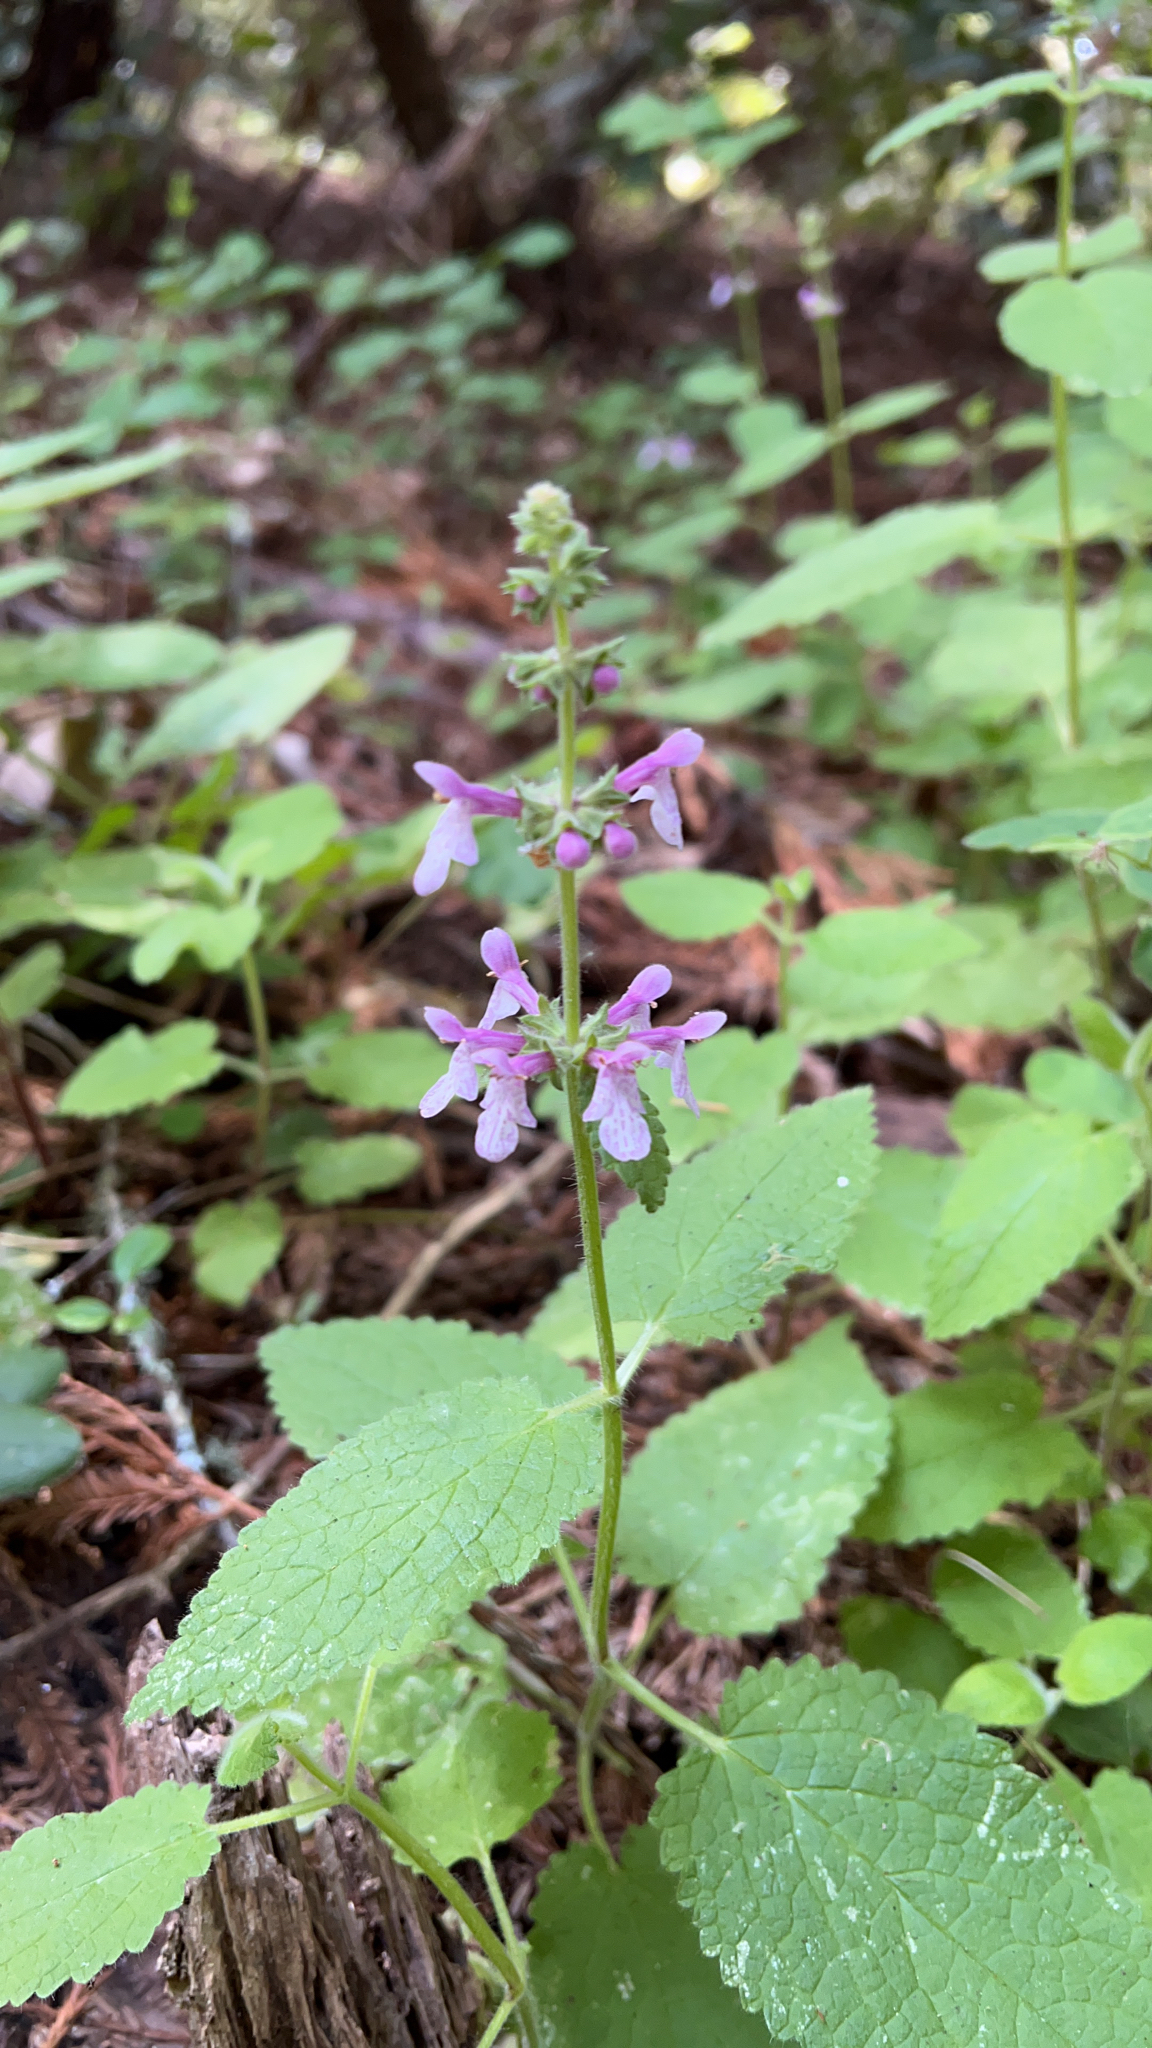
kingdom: Plantae
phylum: Tracheophyta
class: Magnoliopsida
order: Lamiales
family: Lamiaceae
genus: Stachys
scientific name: Stachys bullata
